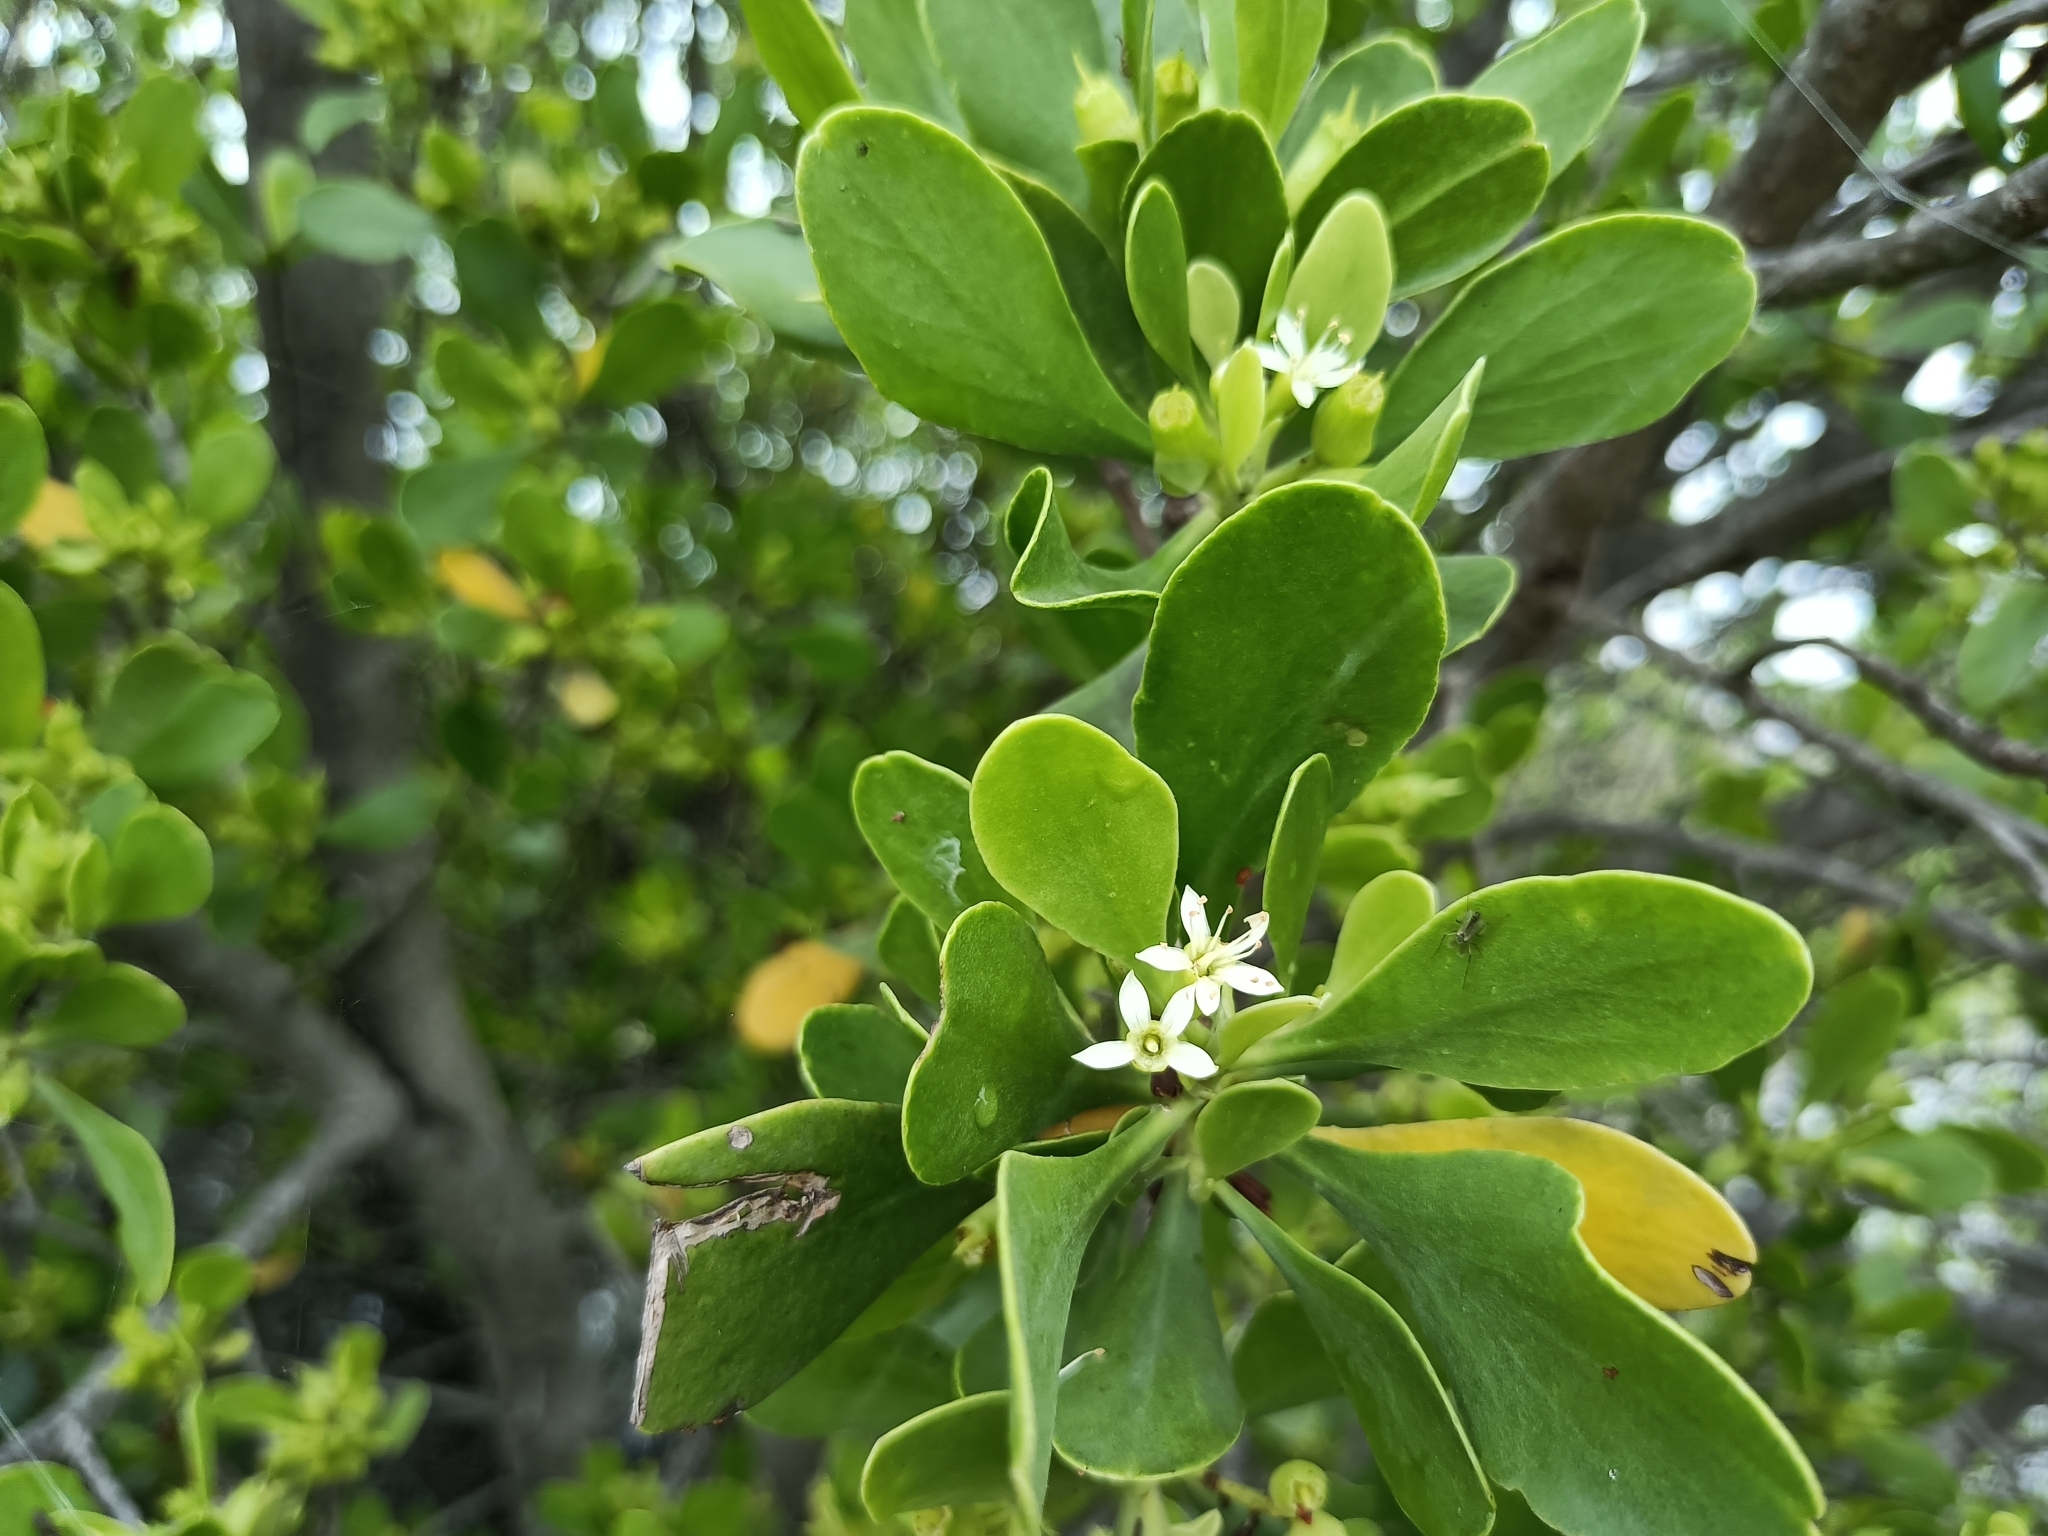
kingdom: Plantae
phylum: Tracheophyta
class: Magnoliopsida
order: Myrtales
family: Combretaceae
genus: Lumnitzera
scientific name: Lumnitzera racemosa
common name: White-flowered black mangrove
